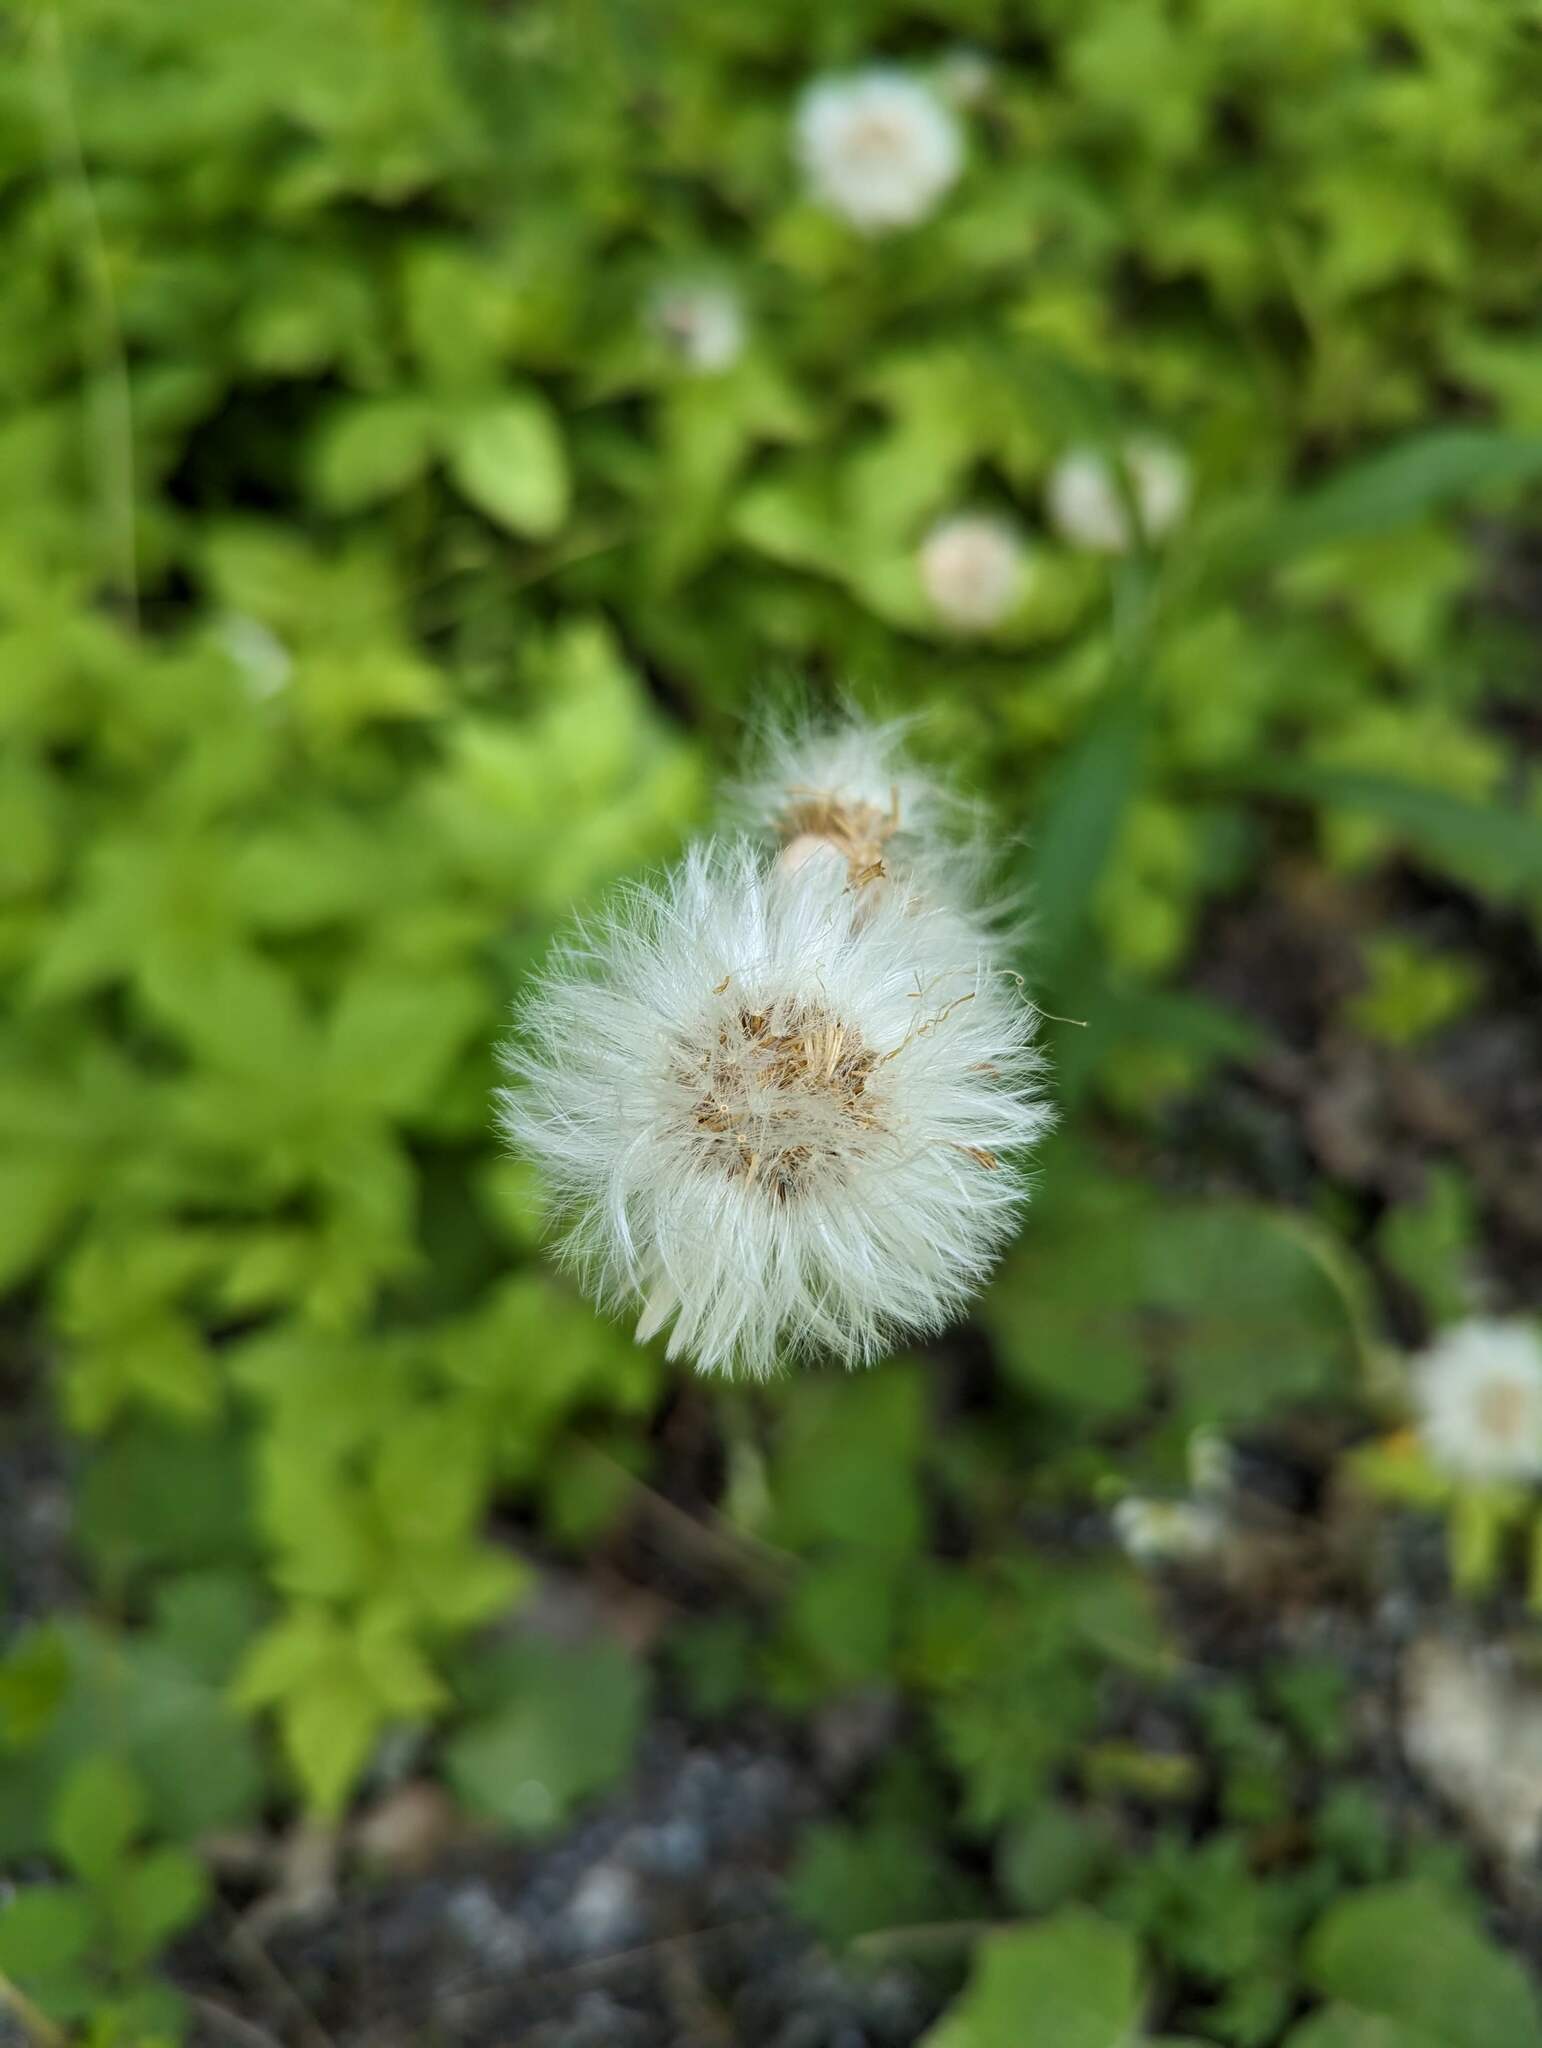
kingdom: Plantae
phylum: Tracheophyta
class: Magnoliopsida
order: Asterales
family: Asteraceae
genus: Tussilago
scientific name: Tussilago farfara
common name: Coltsfoot
